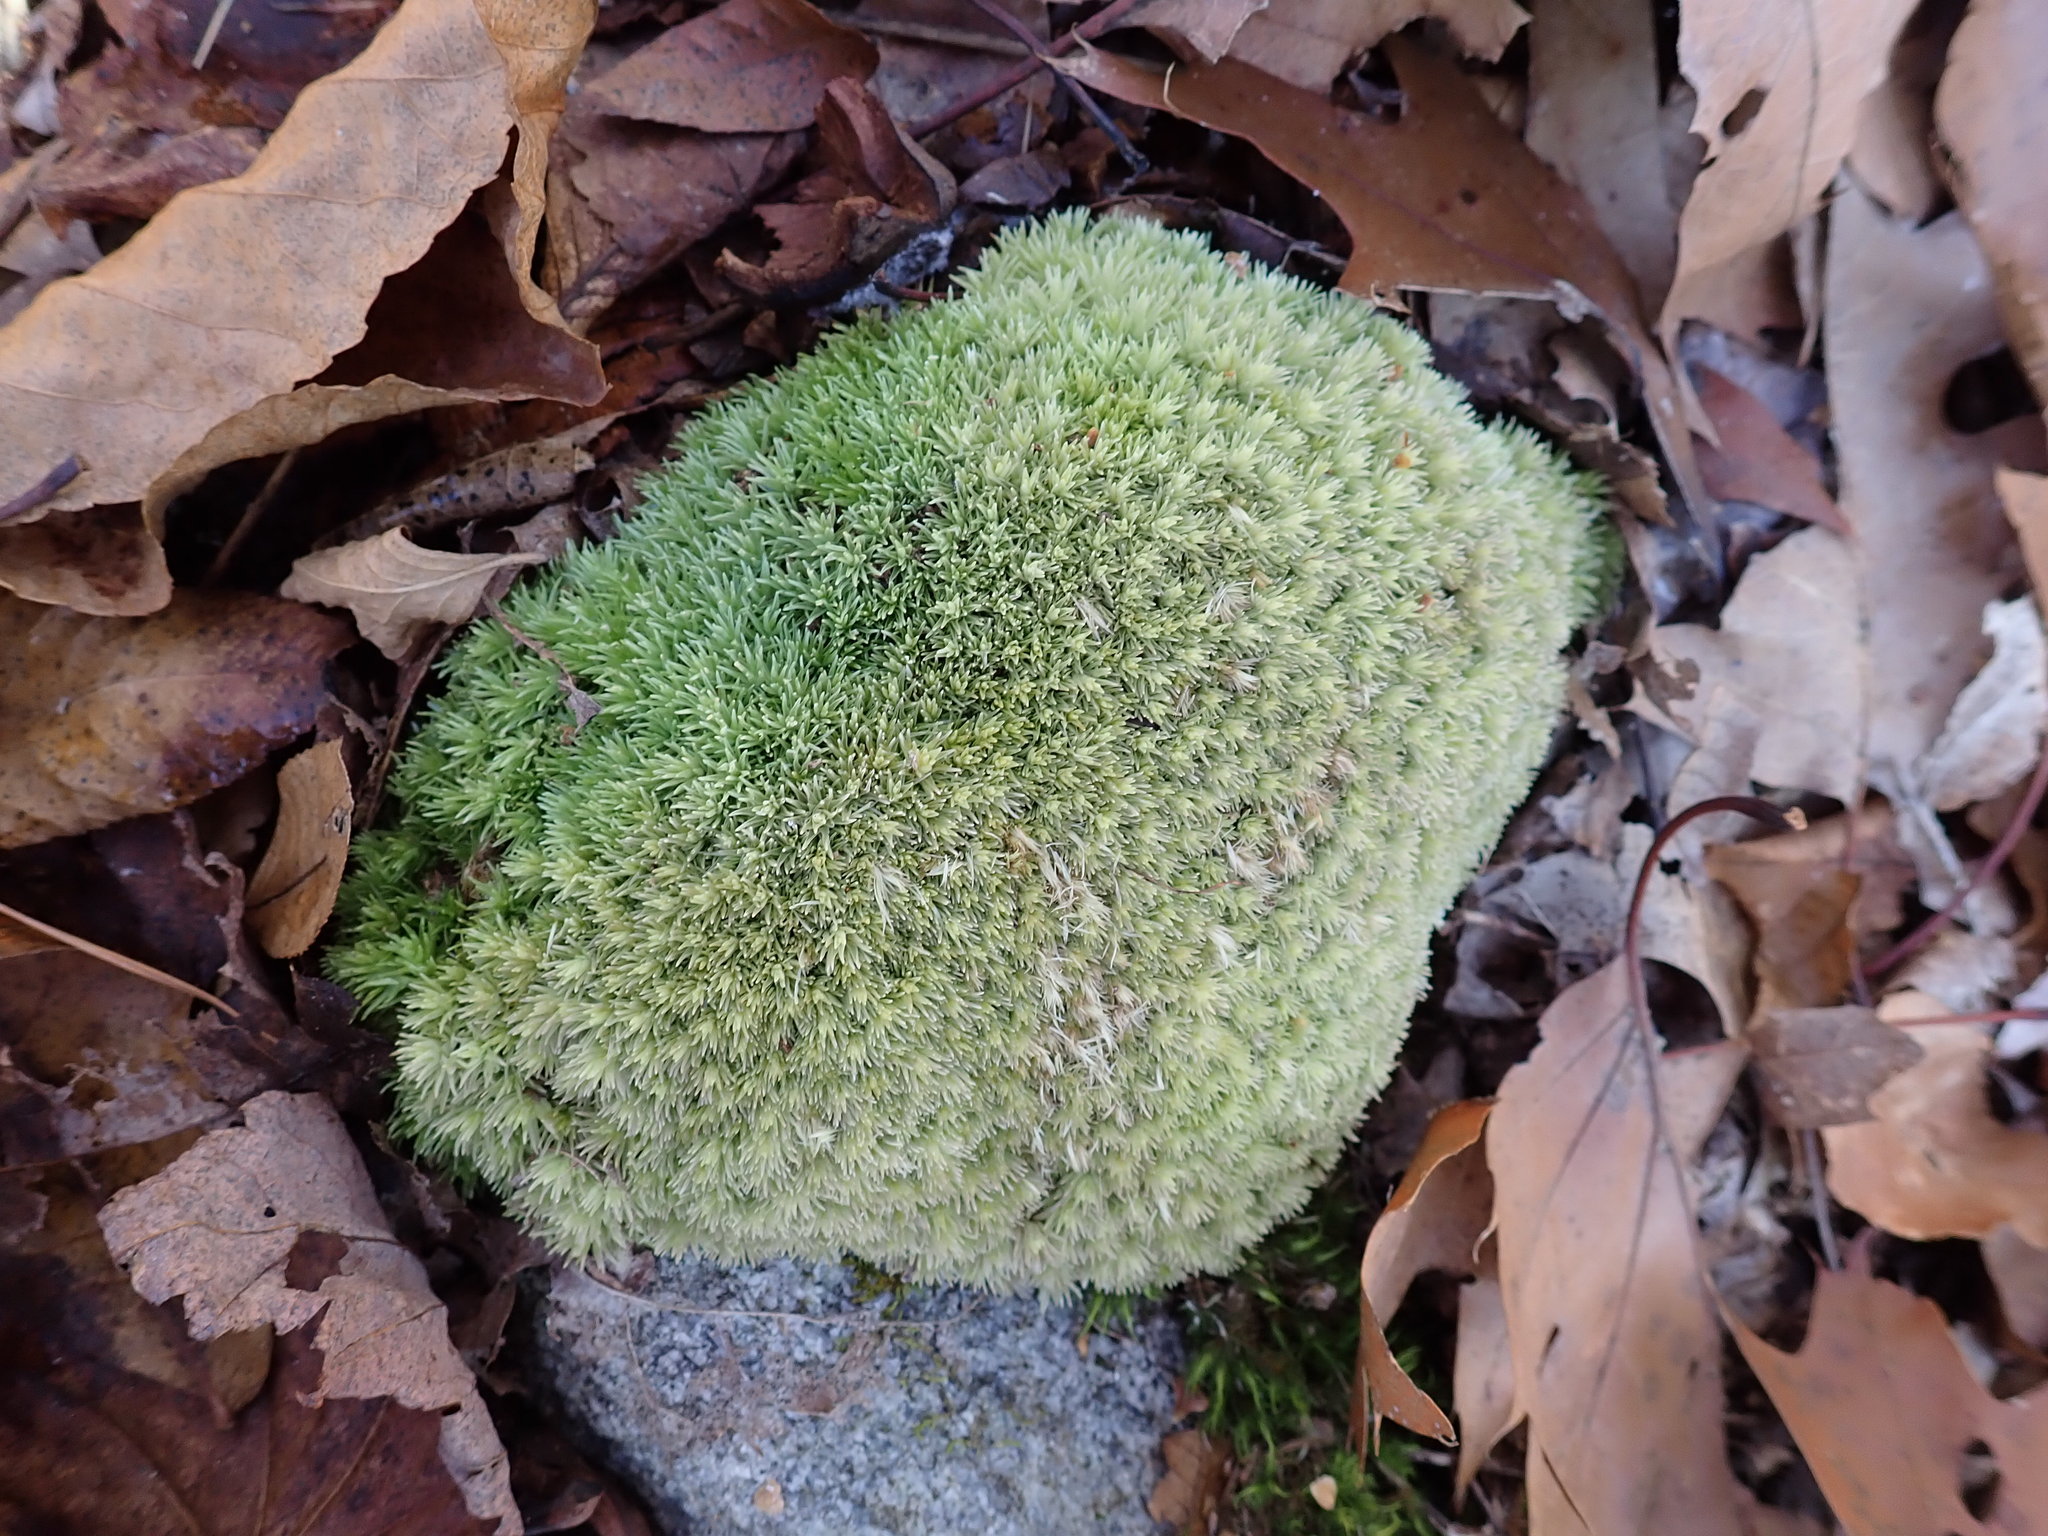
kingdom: Plantae
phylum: Bryophyta
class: Bryopsida
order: Dicranales
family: Leucobryaceae
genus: Leucobryum
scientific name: Leucobryum glaucum
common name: Large white-moss
